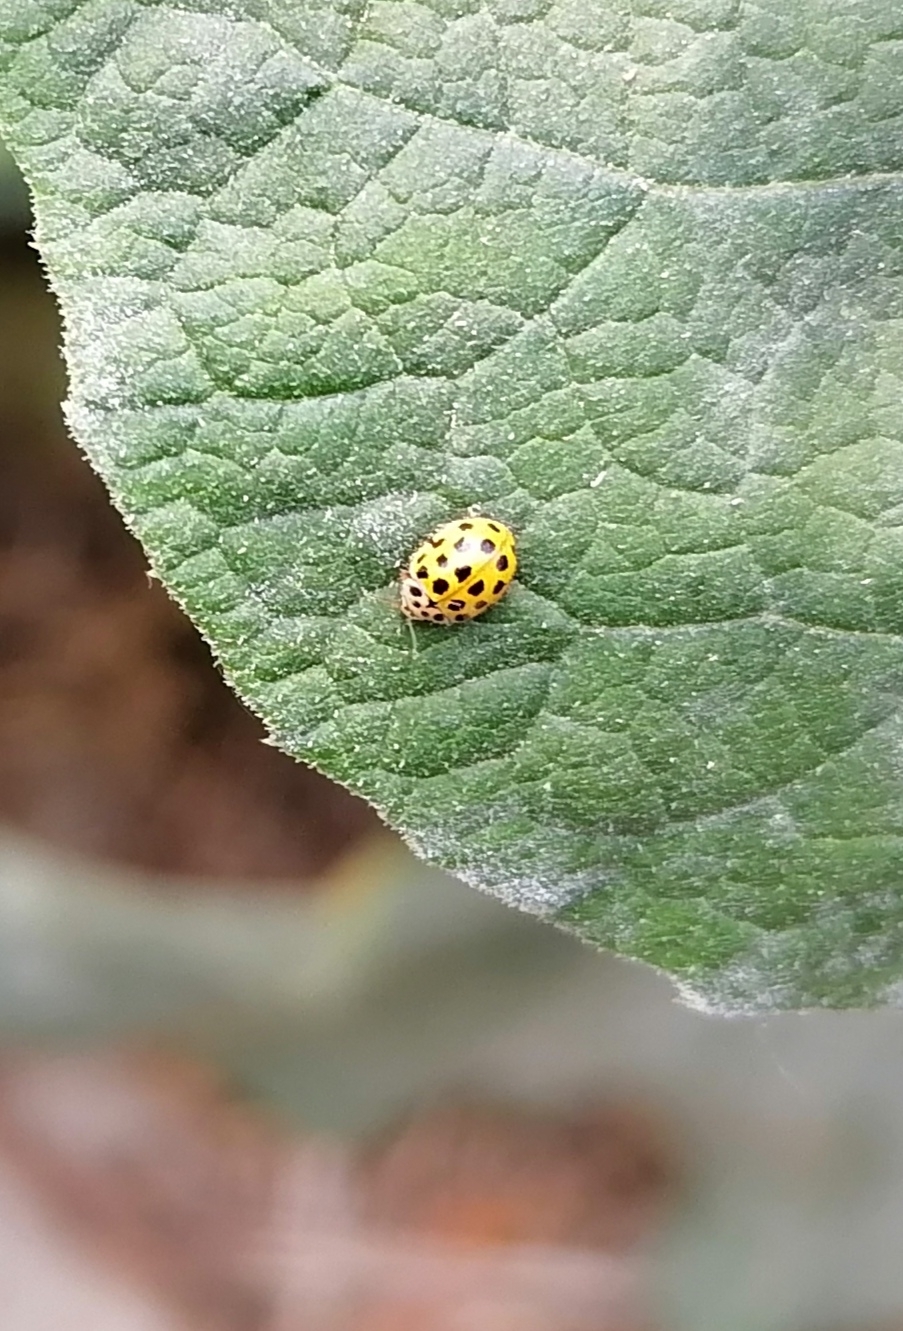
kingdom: Animalia
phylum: Arthropoda
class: Insecta
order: Coleoptera
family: Coccinellidae
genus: Psyllobora
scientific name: Psyllobora vigintiduopunctata
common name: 22-spot ladybird
